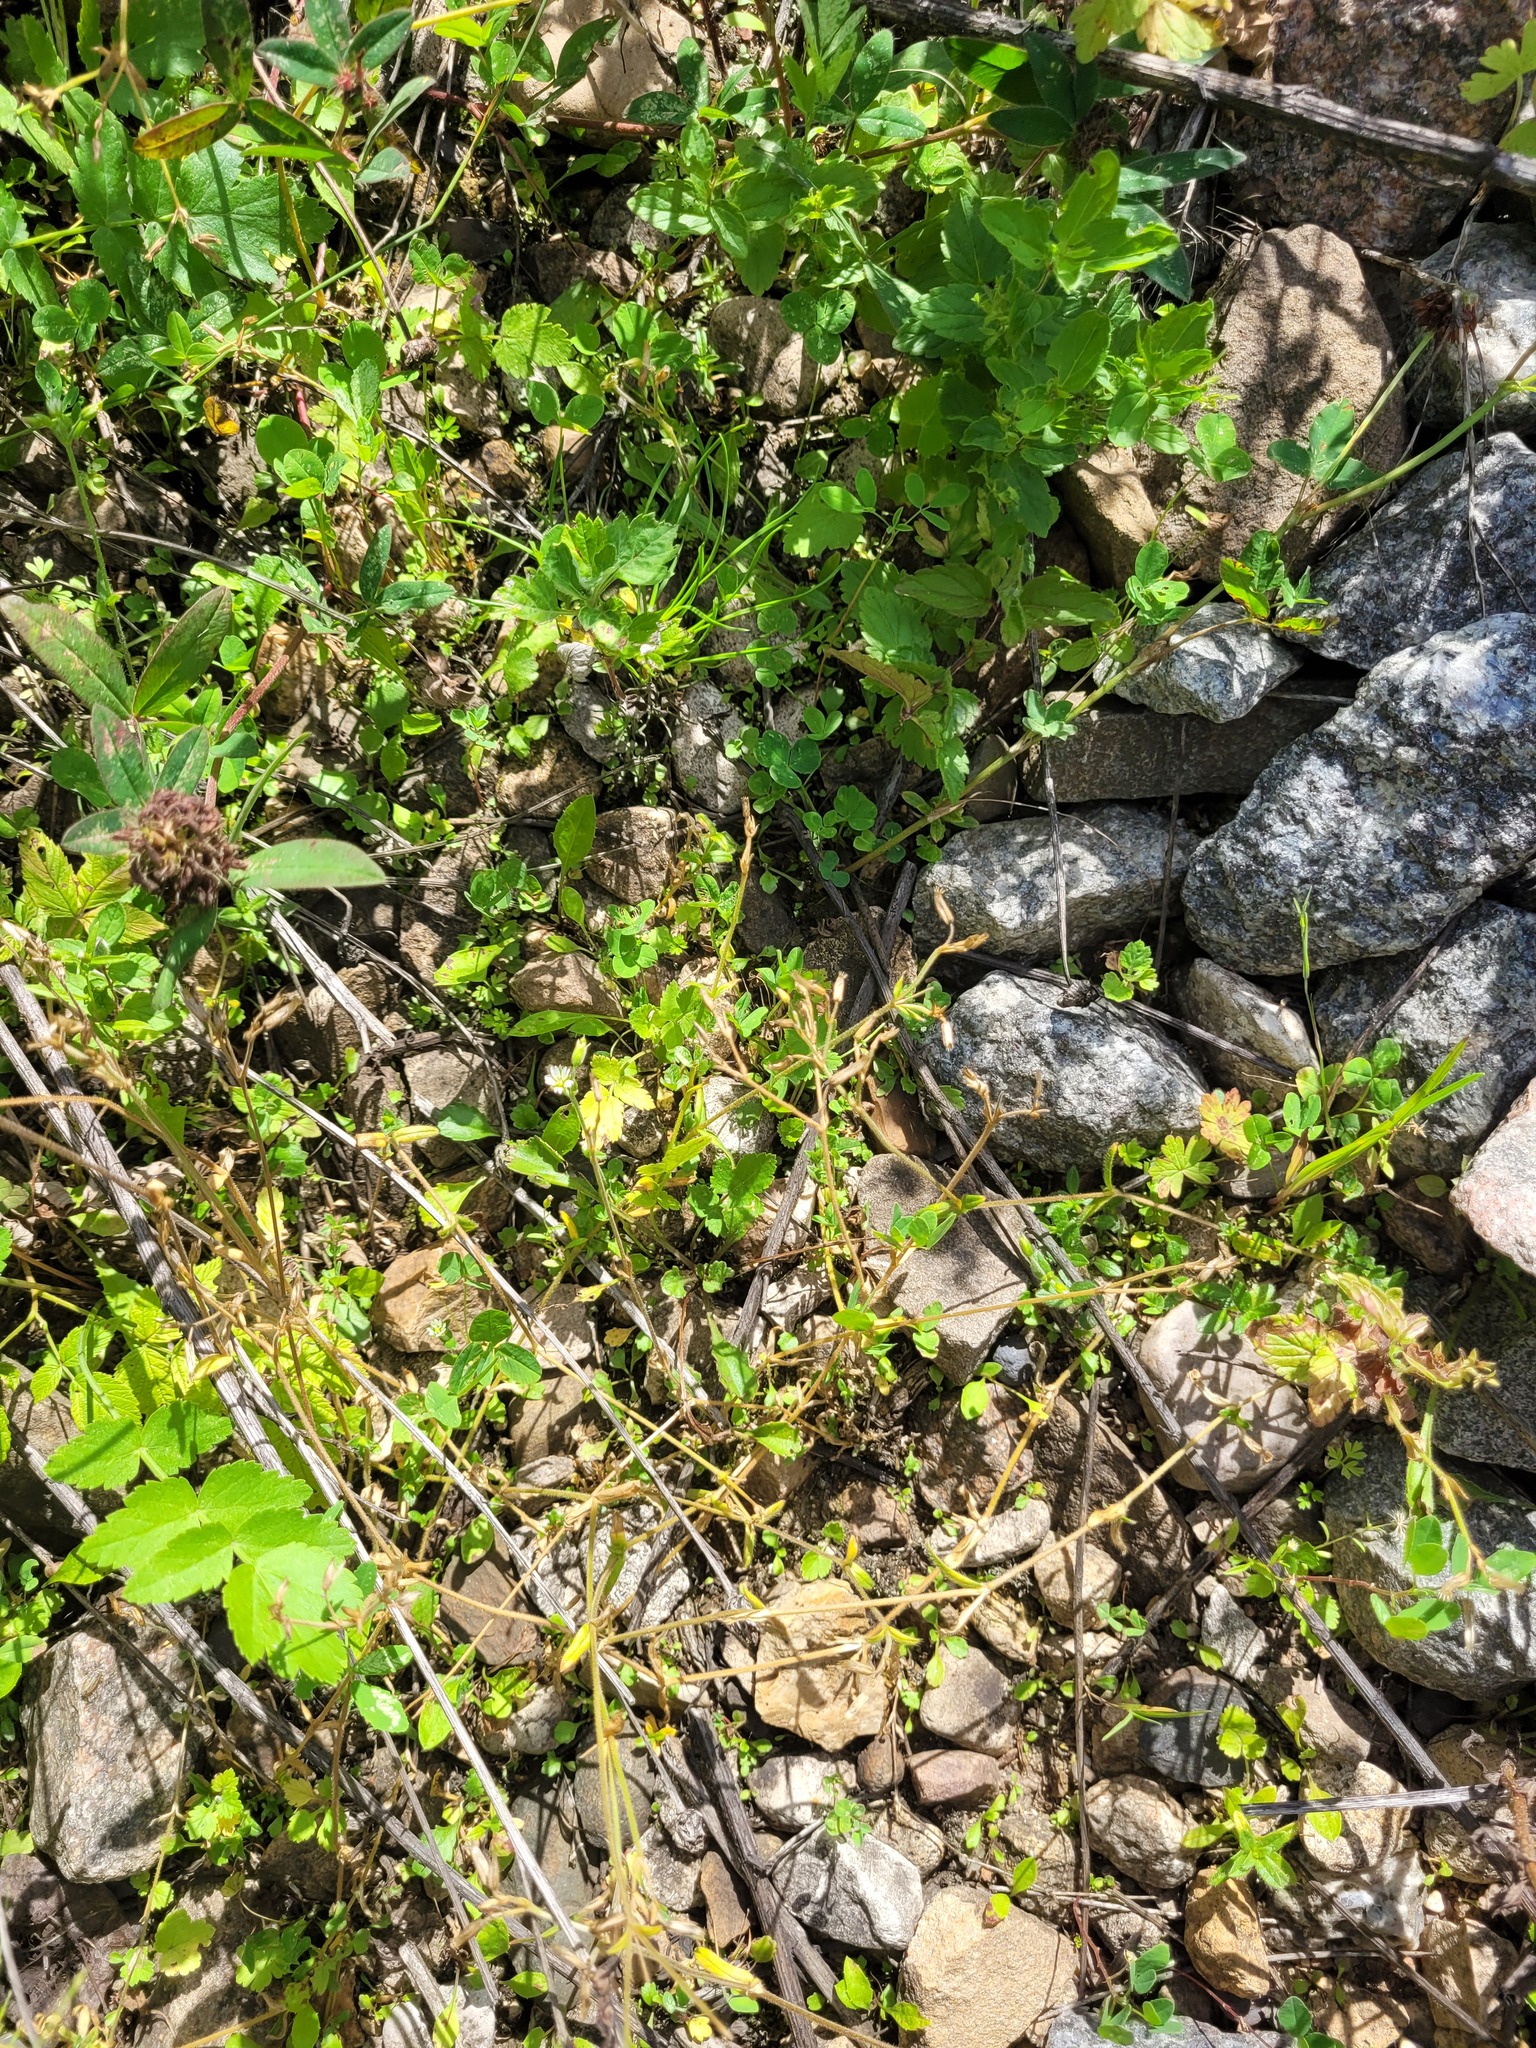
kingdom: Plantae
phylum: Tracheophyta
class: Magnoliopsida
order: Caryophyllales
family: Caryophyllaceae
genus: Cerastium
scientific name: Cerastium holosteoides
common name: Big chickweed
